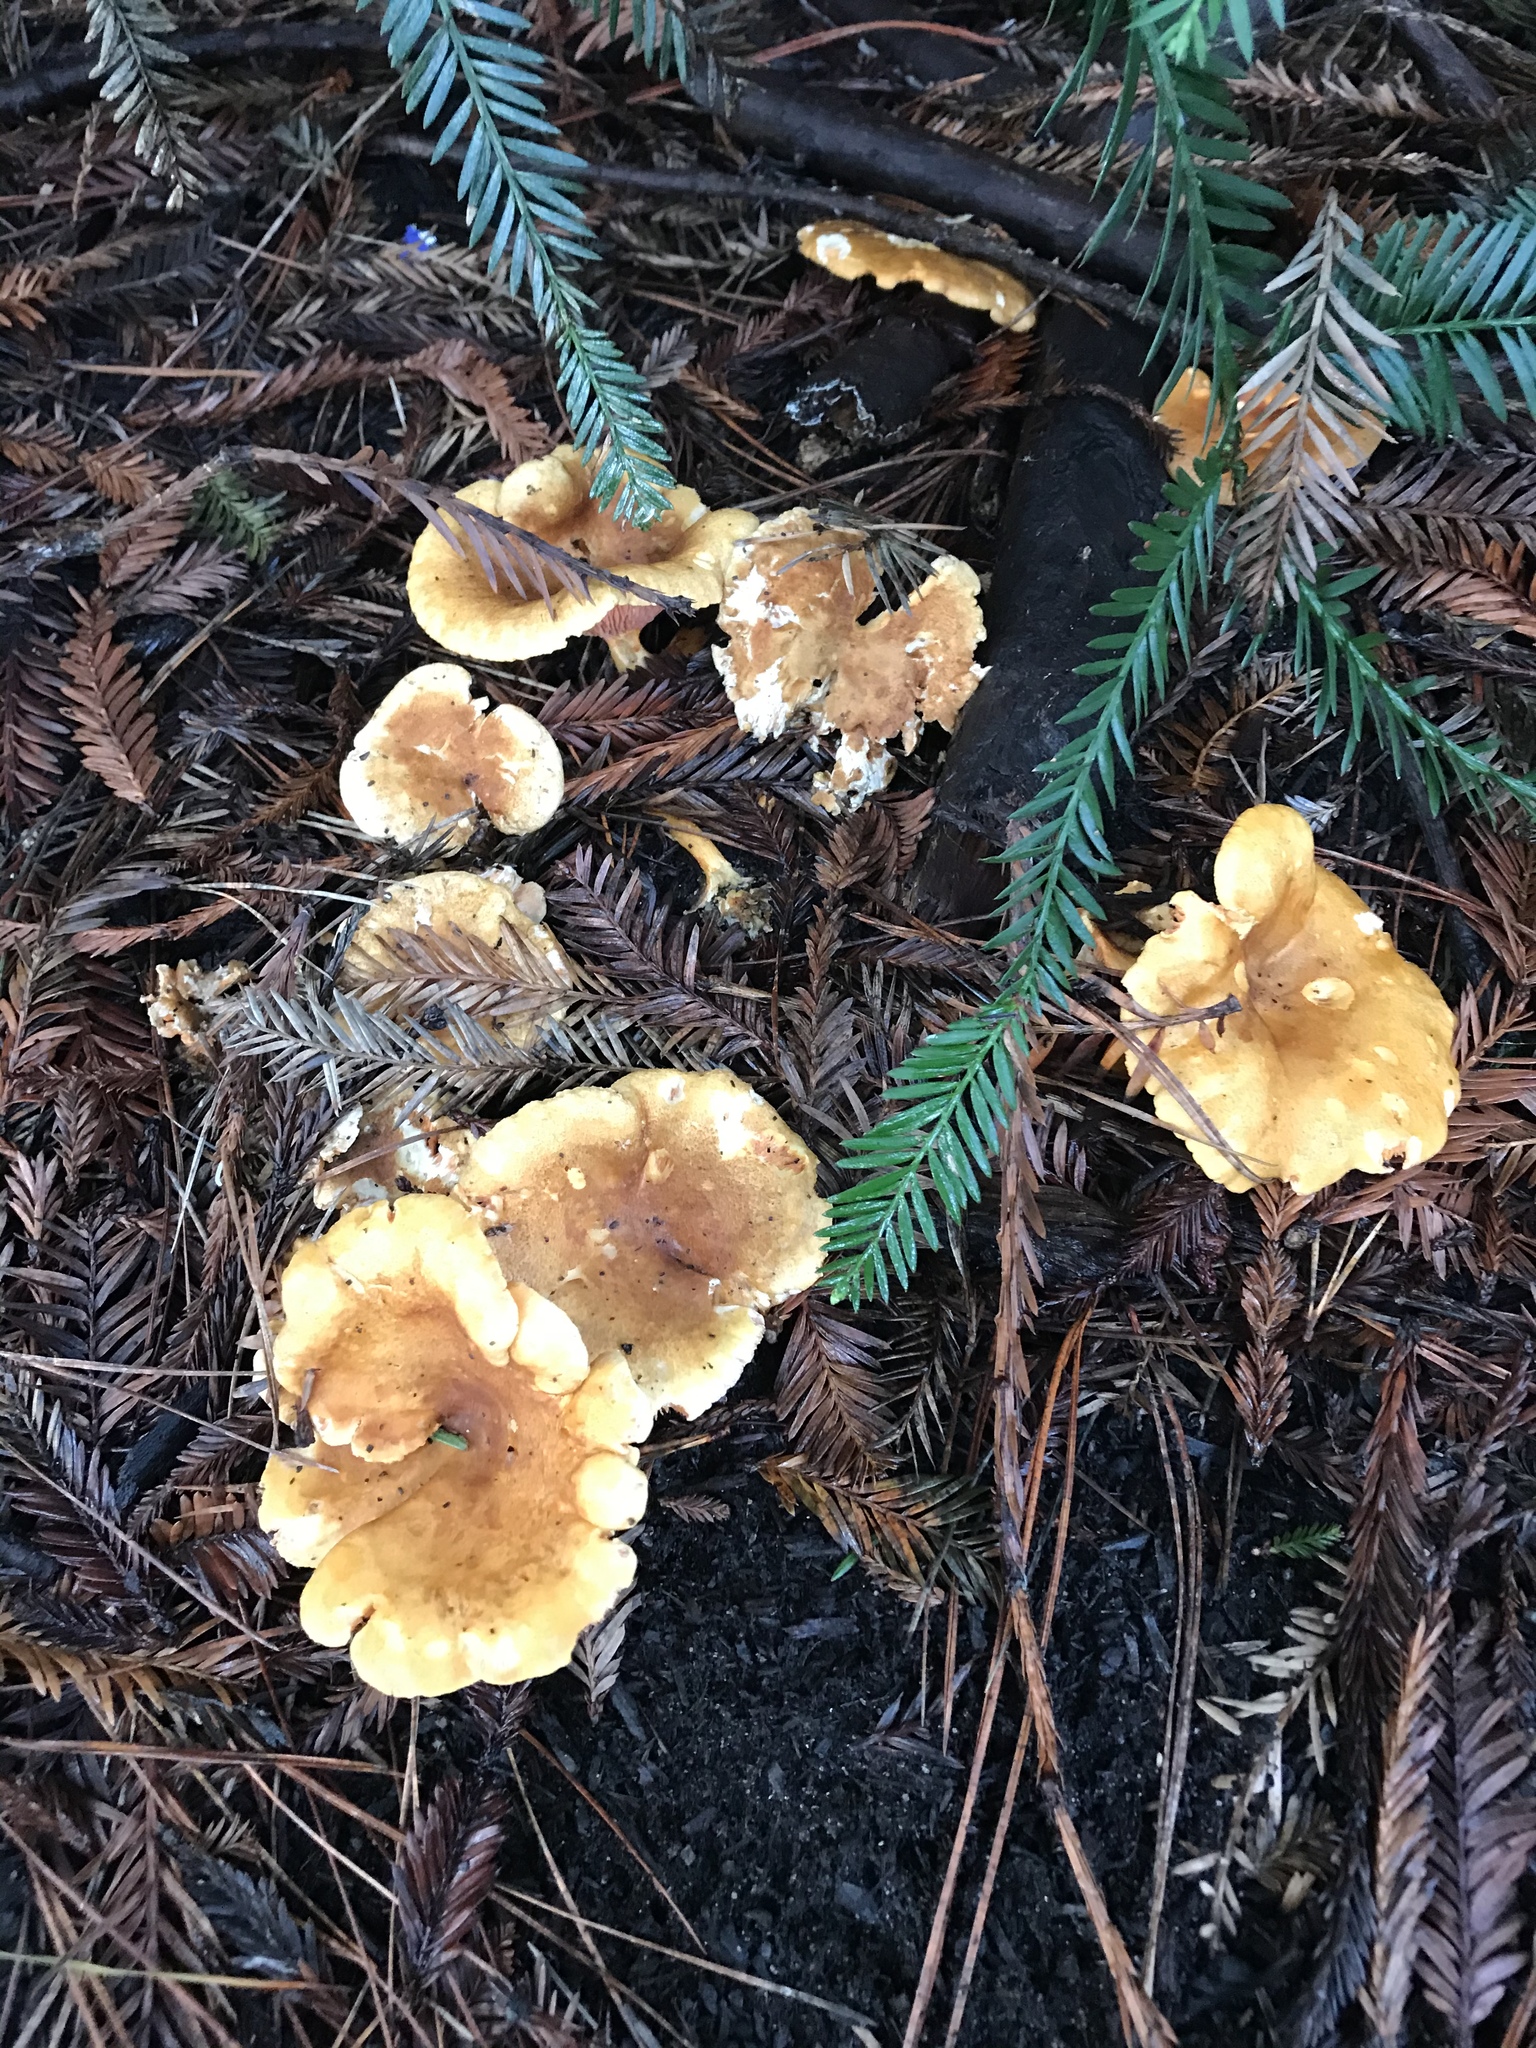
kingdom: Fungi
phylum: Basidiomycota
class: Agaricomycetes
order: Boletales
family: Hygrophoropsidaceae
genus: Hygrophoropsis
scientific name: Hygrophoropsis aurantiaca
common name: False chanterelle
